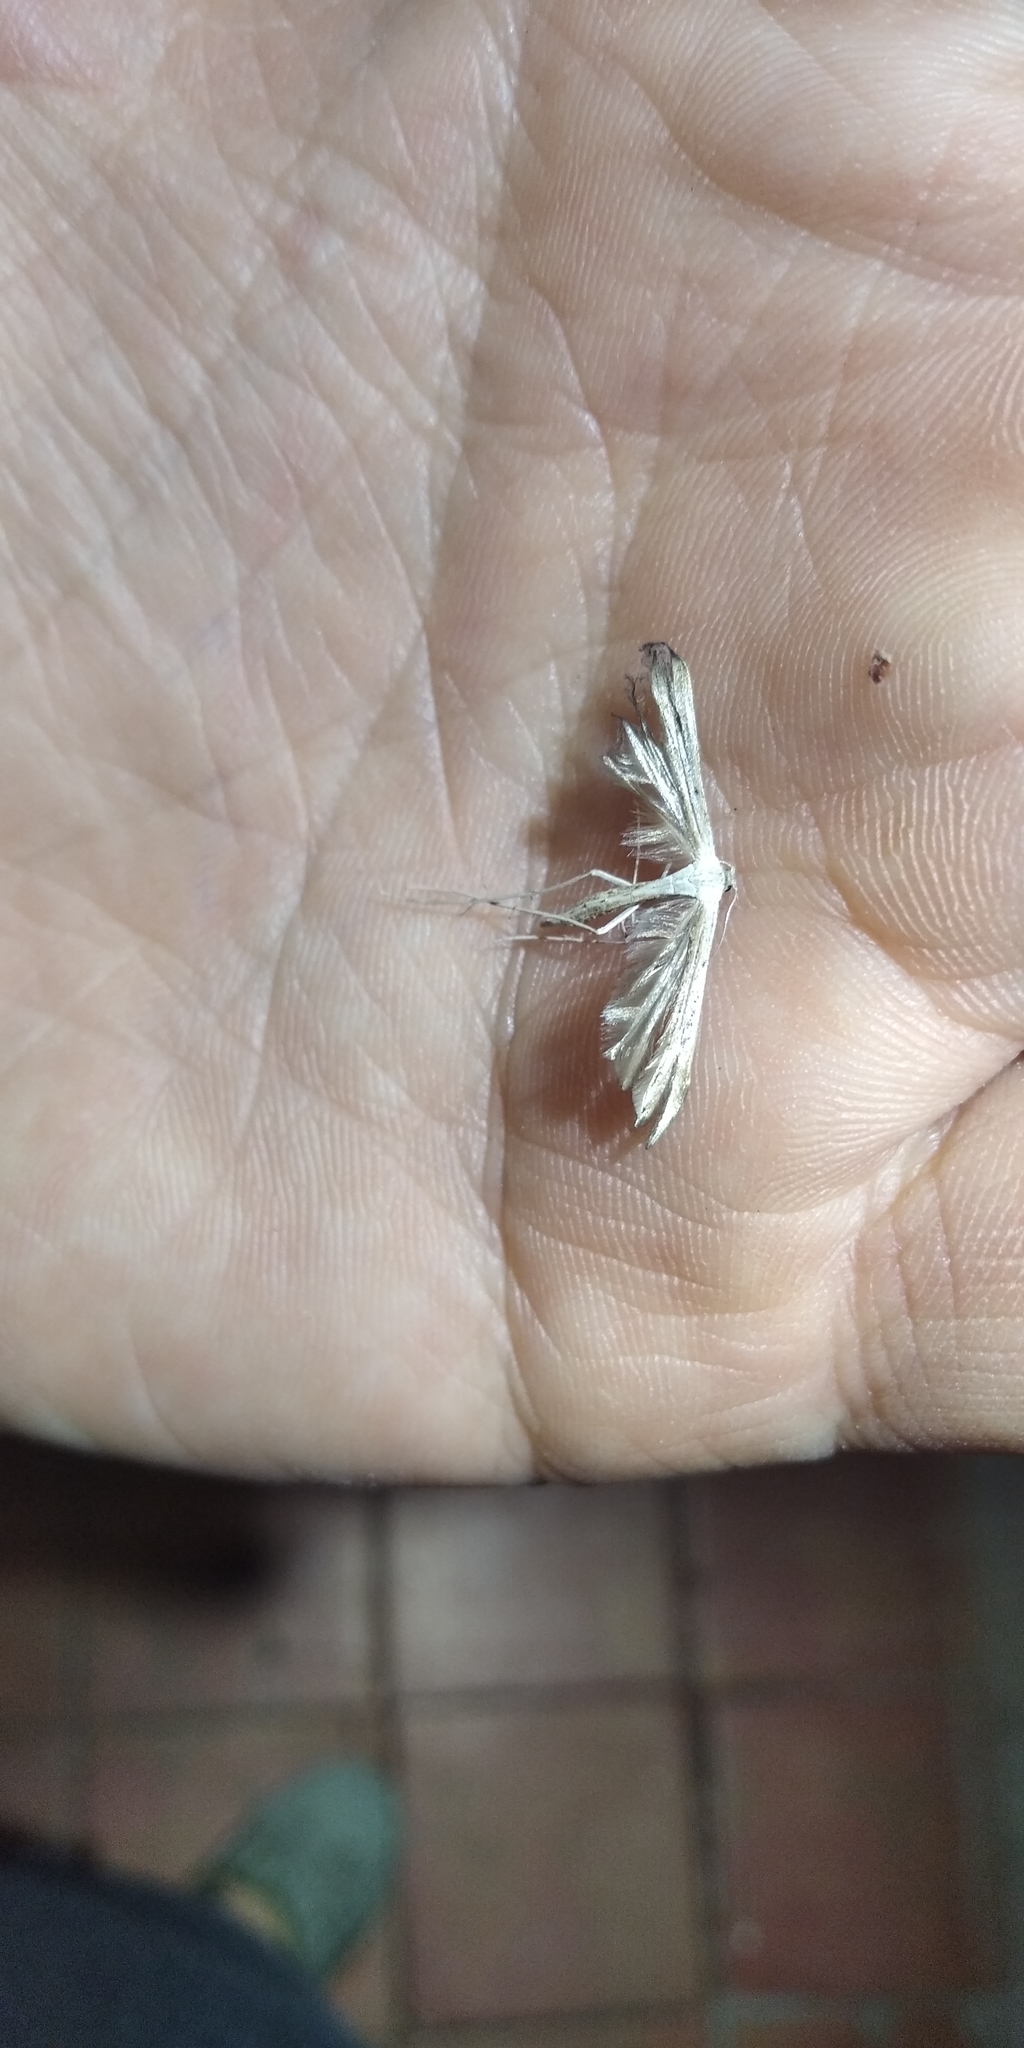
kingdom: Animalia
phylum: Arthropoda
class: Insecta
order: Lepidoptera
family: Pterophoridae
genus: Pterophorus
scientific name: Pterophorus pentadactyla
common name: White plume moth
